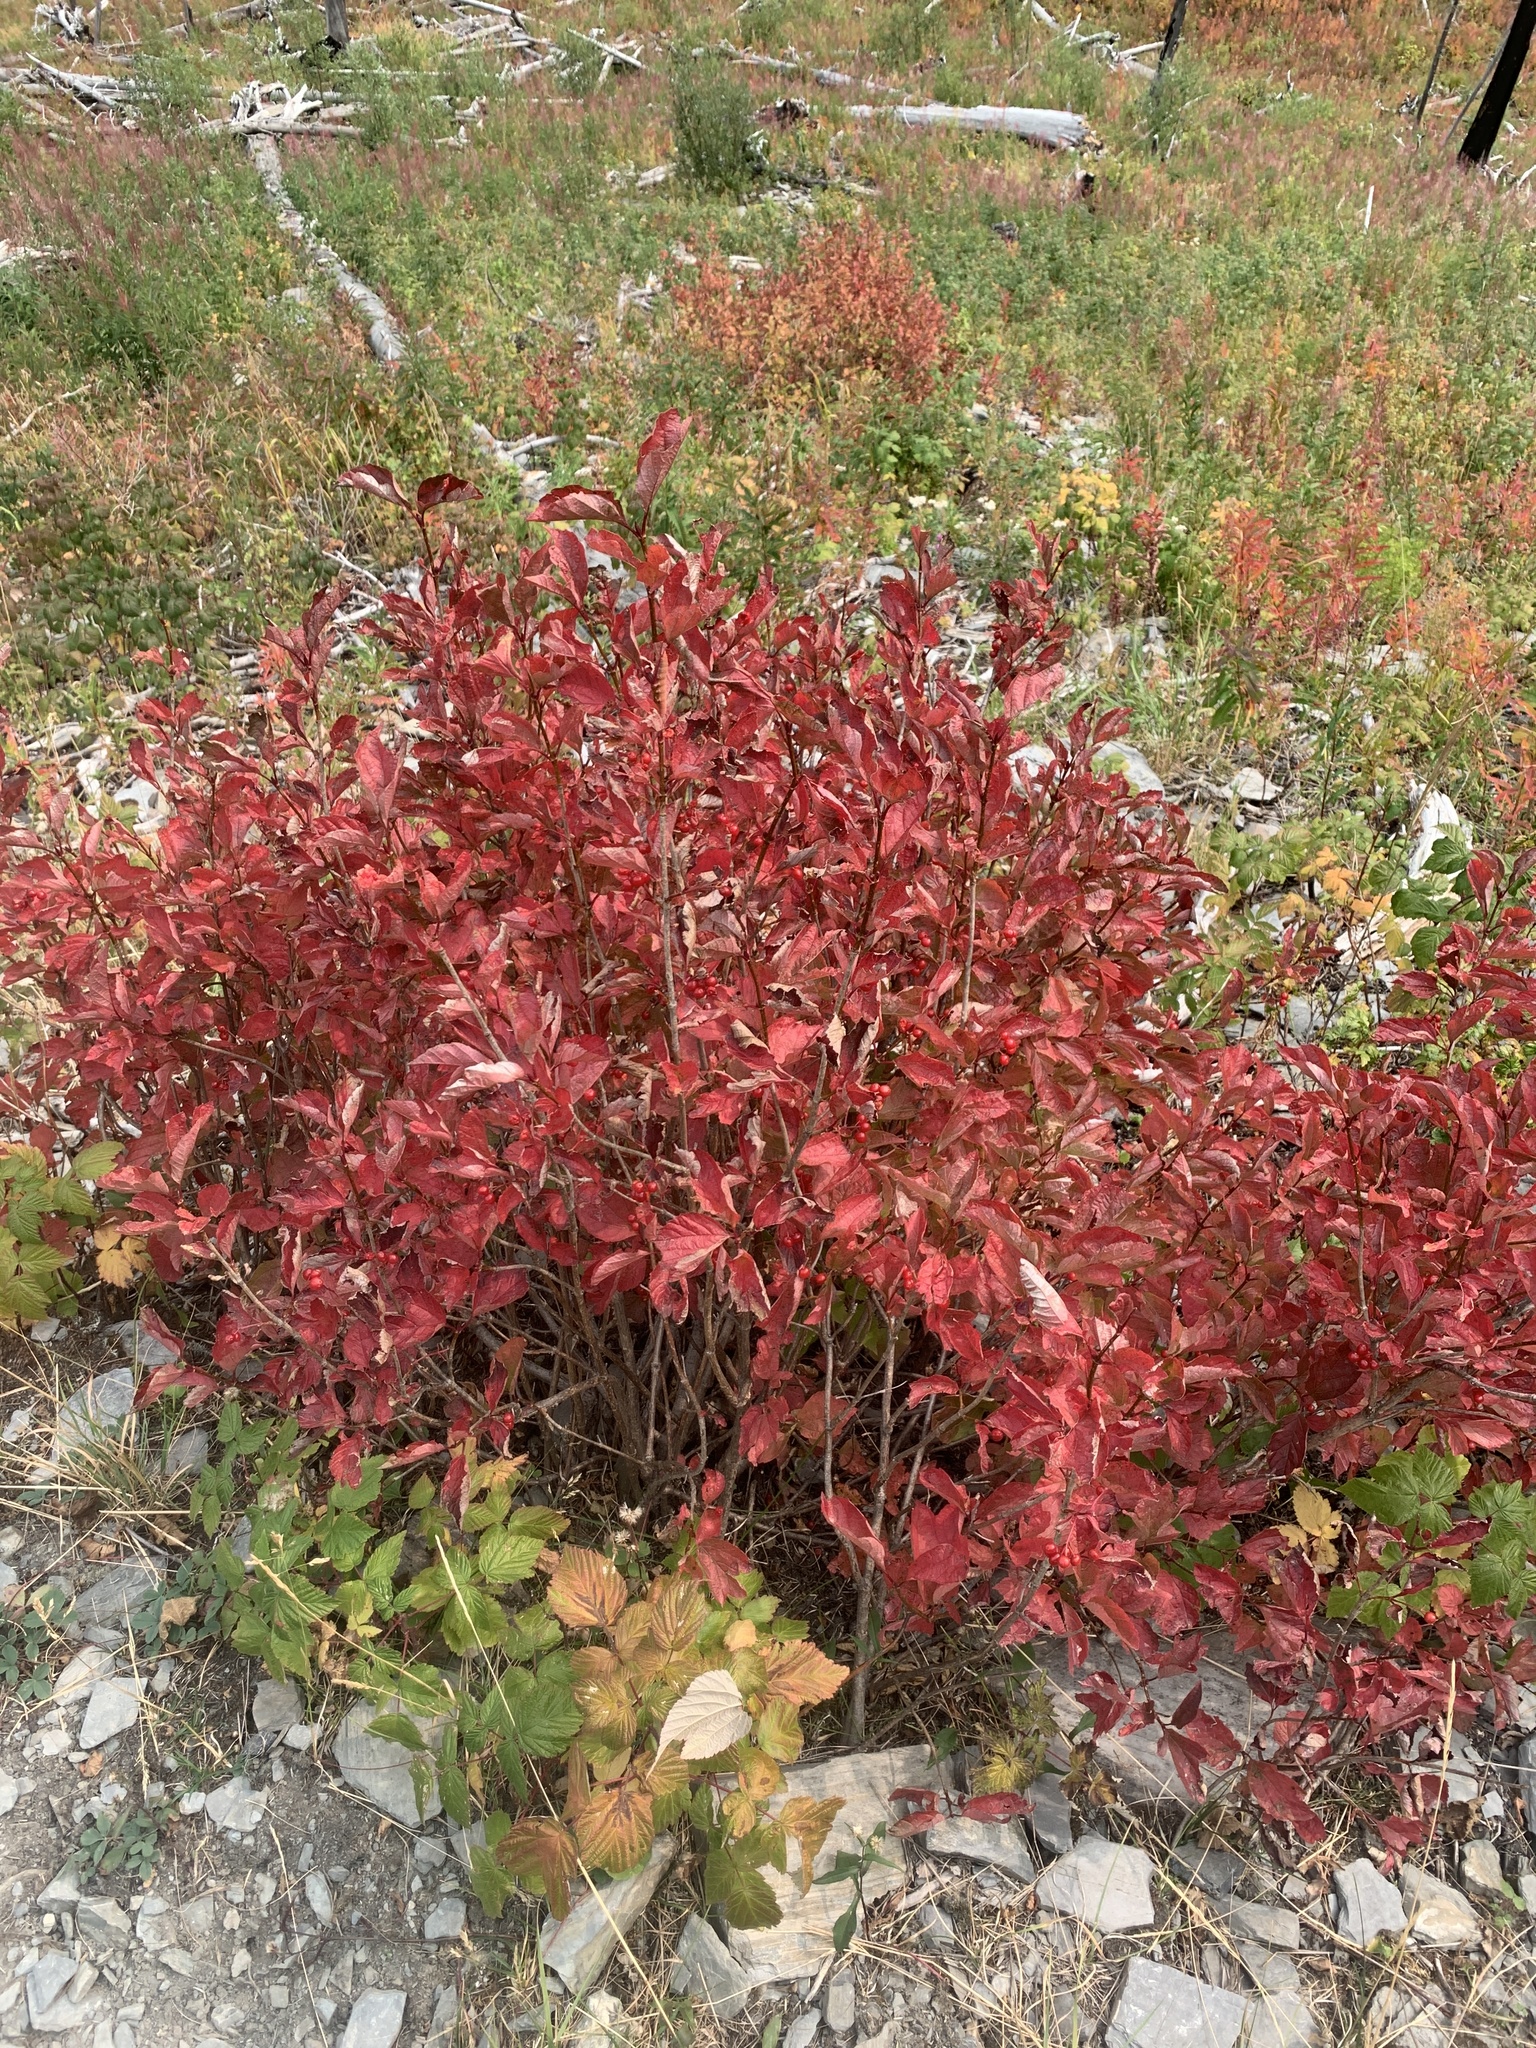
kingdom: Plantae
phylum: Tracheophyta
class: Magnoliopsida
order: Dipsacales
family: Viburnaceae
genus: Viburnum
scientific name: Viburnum edule
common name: Mooseberry
